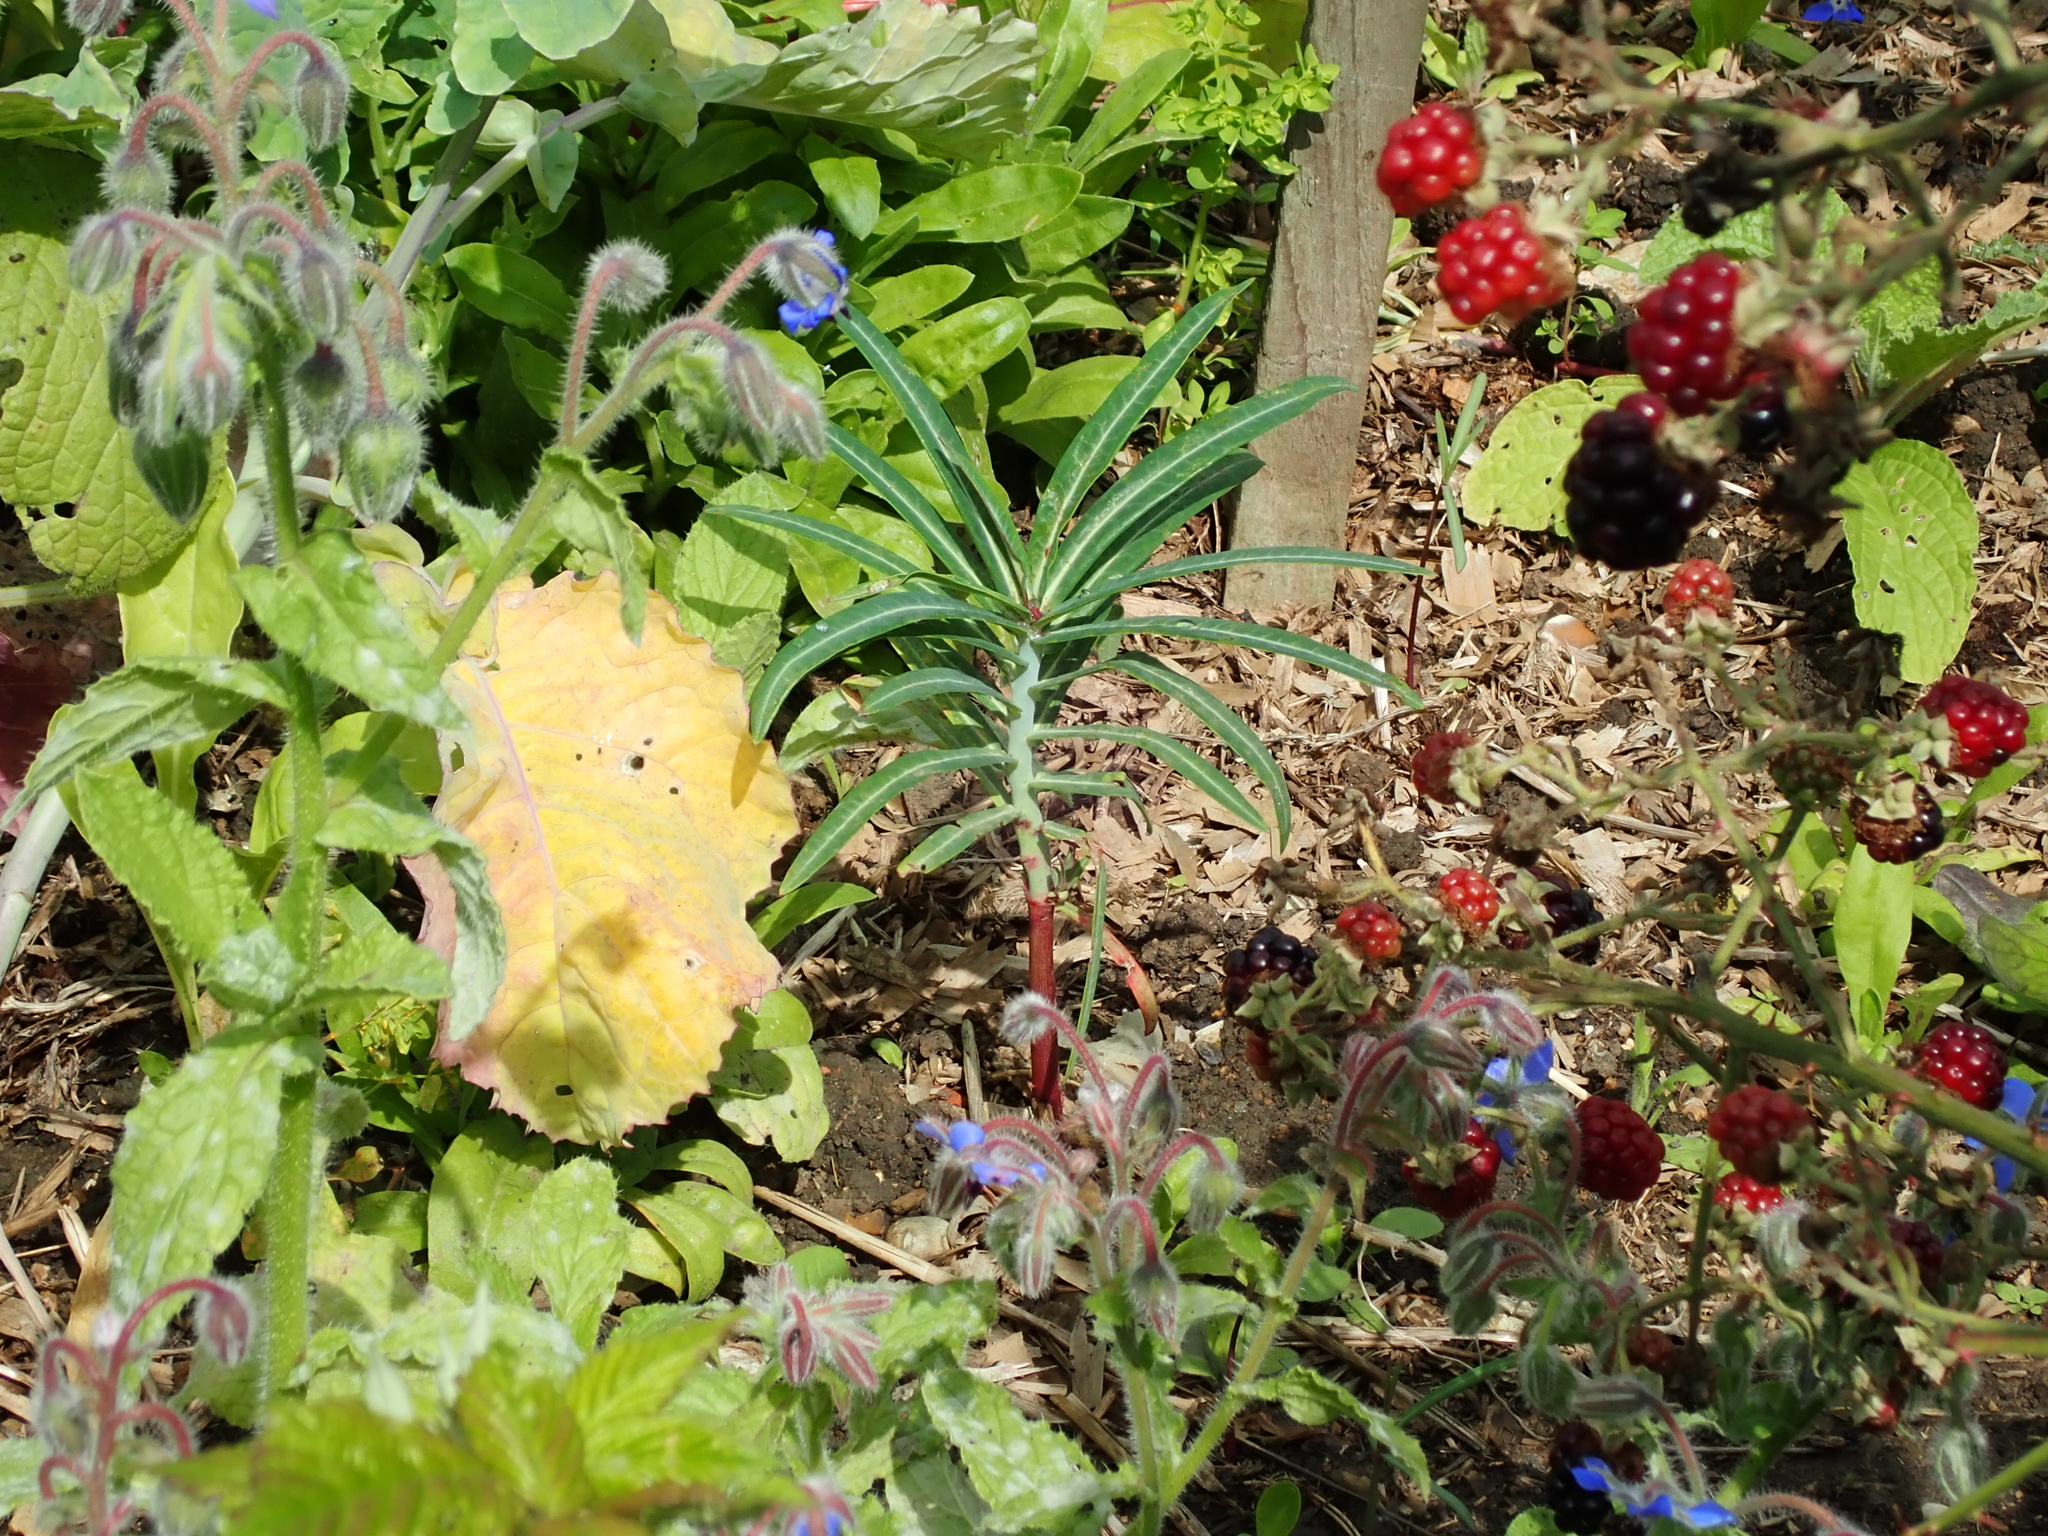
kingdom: Plantae
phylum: Tracheophyta
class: Magnoliopsida
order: Malpighiales
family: Euphorbiaceae
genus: Euphorbia
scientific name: Euphorbia lathyris
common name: Caper spurge
